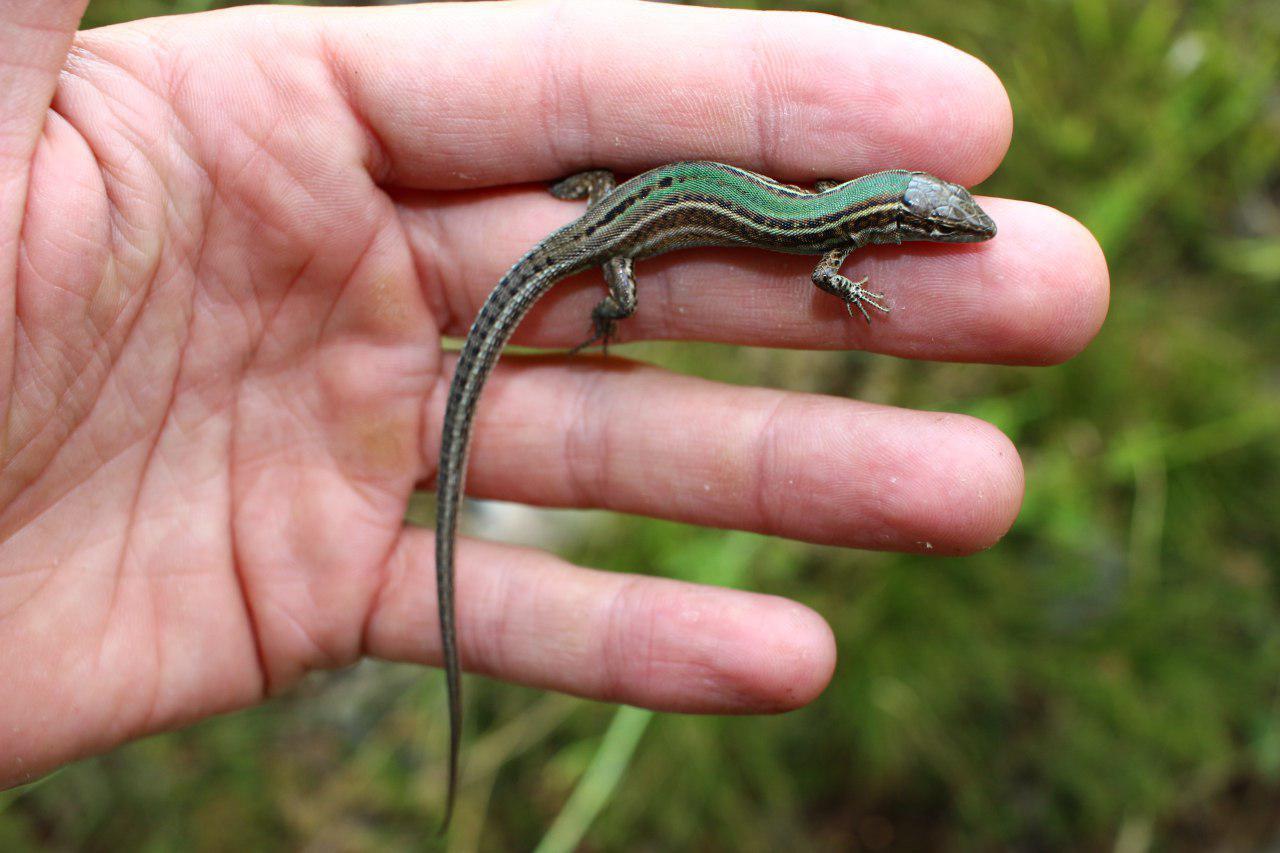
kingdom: Animalia
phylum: Chordata
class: Squamata
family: Lacertidae
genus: Podarcis
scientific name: Podarcis melisellensis
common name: Dalmatian wall lizard
